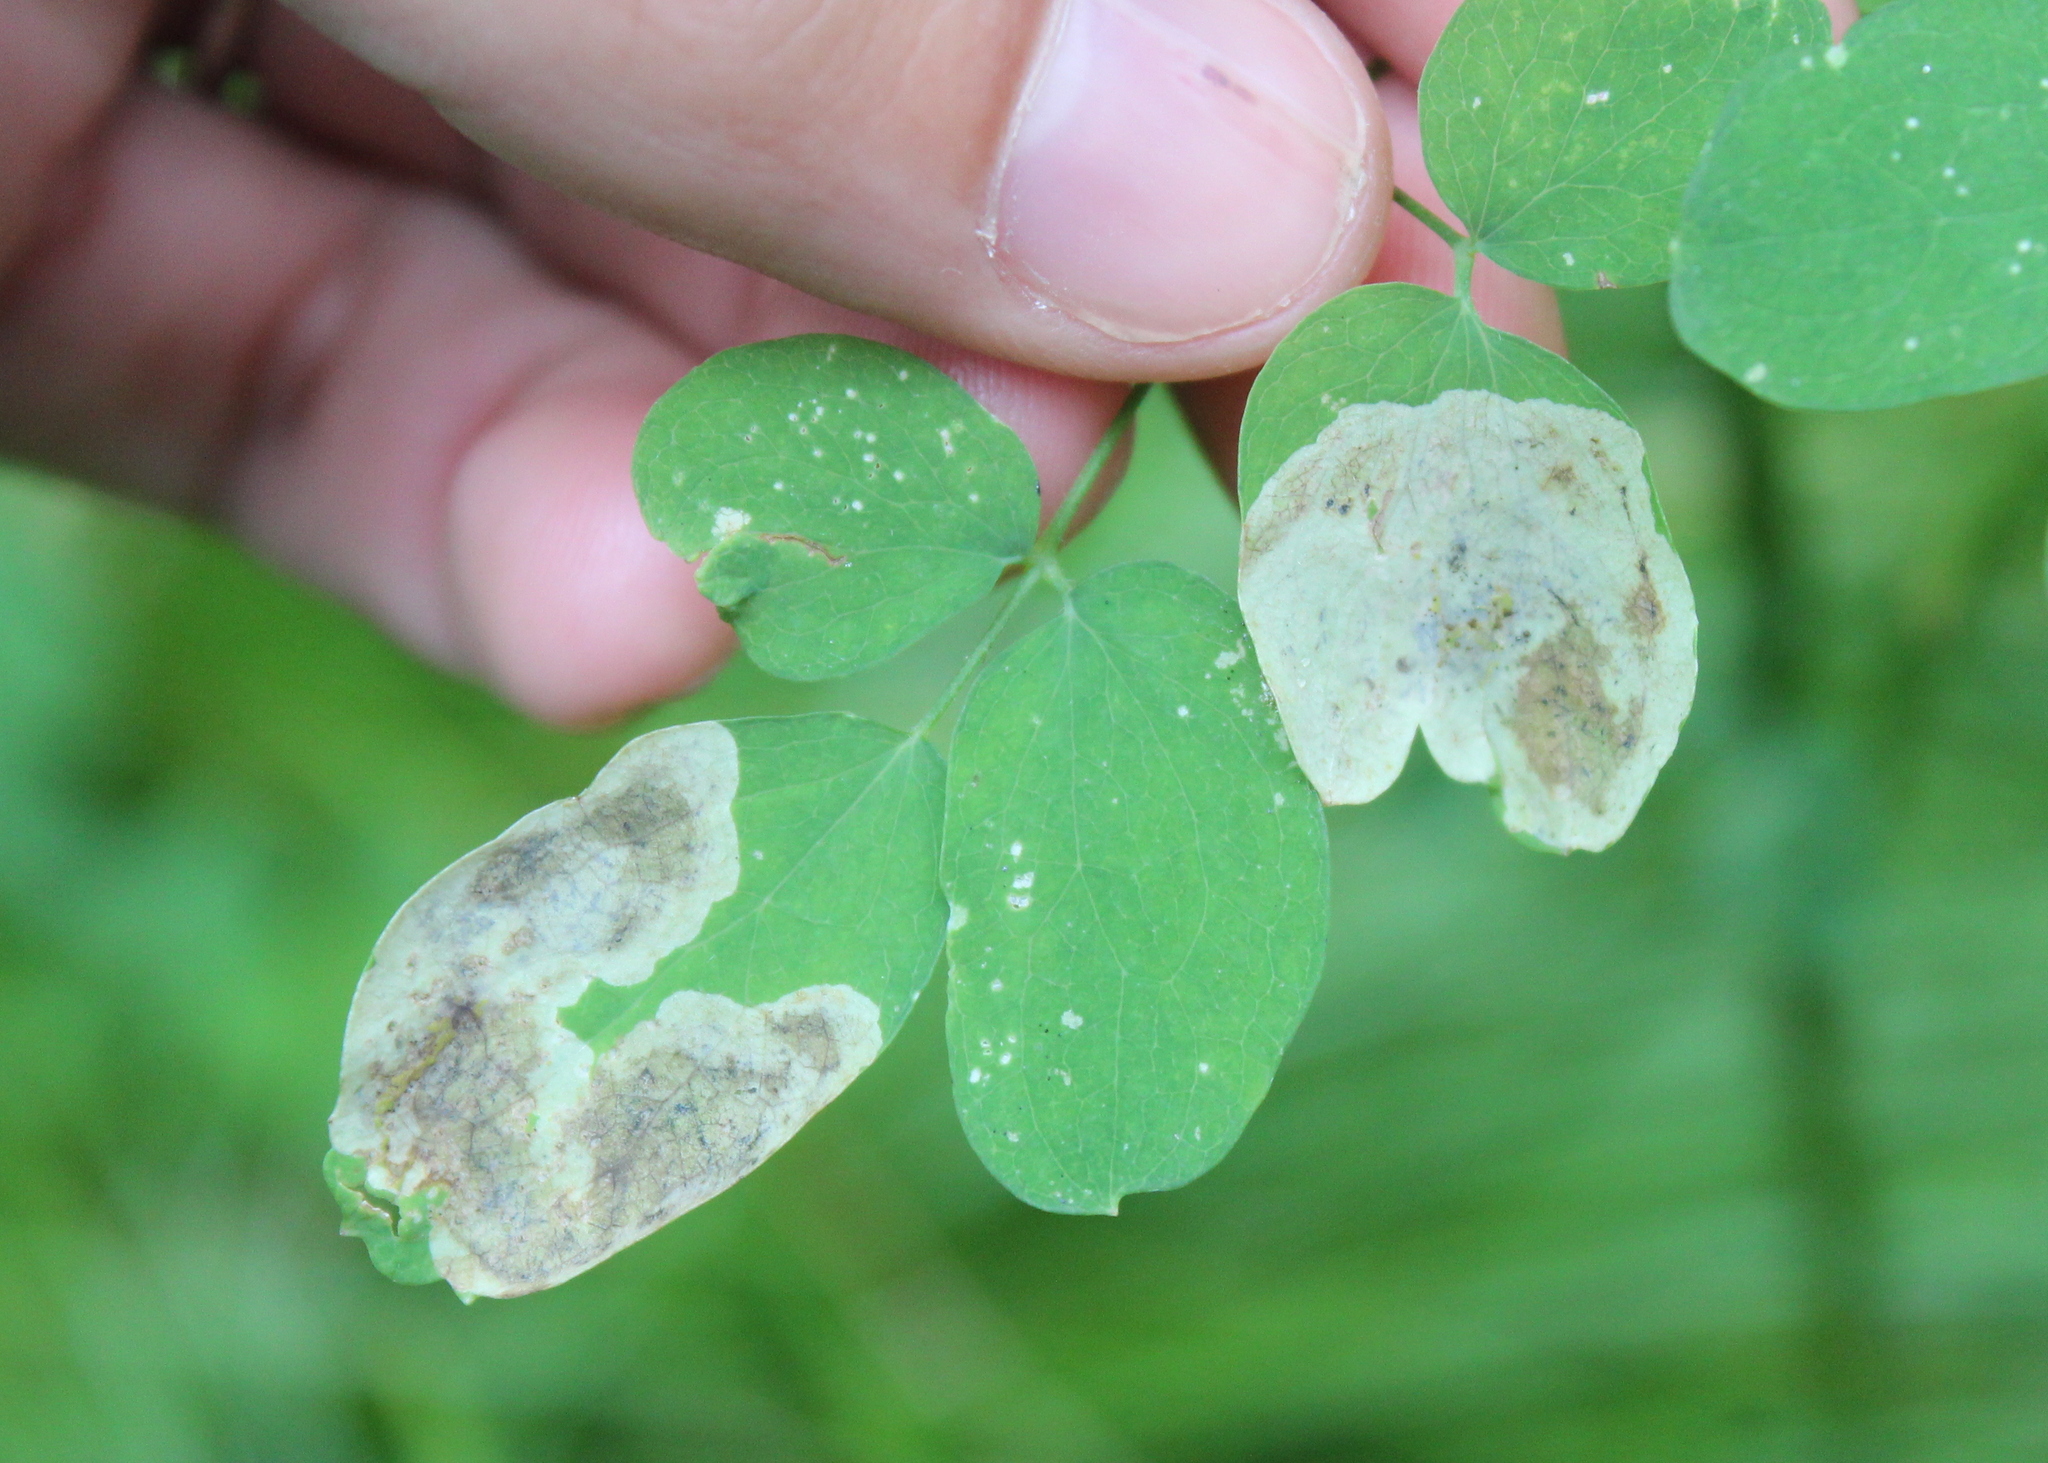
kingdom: Animalia
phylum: Arthropoda
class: Insecta
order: Diptera
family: Agromyzidae
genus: Phytomyza
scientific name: Phytomyza plumiseta
